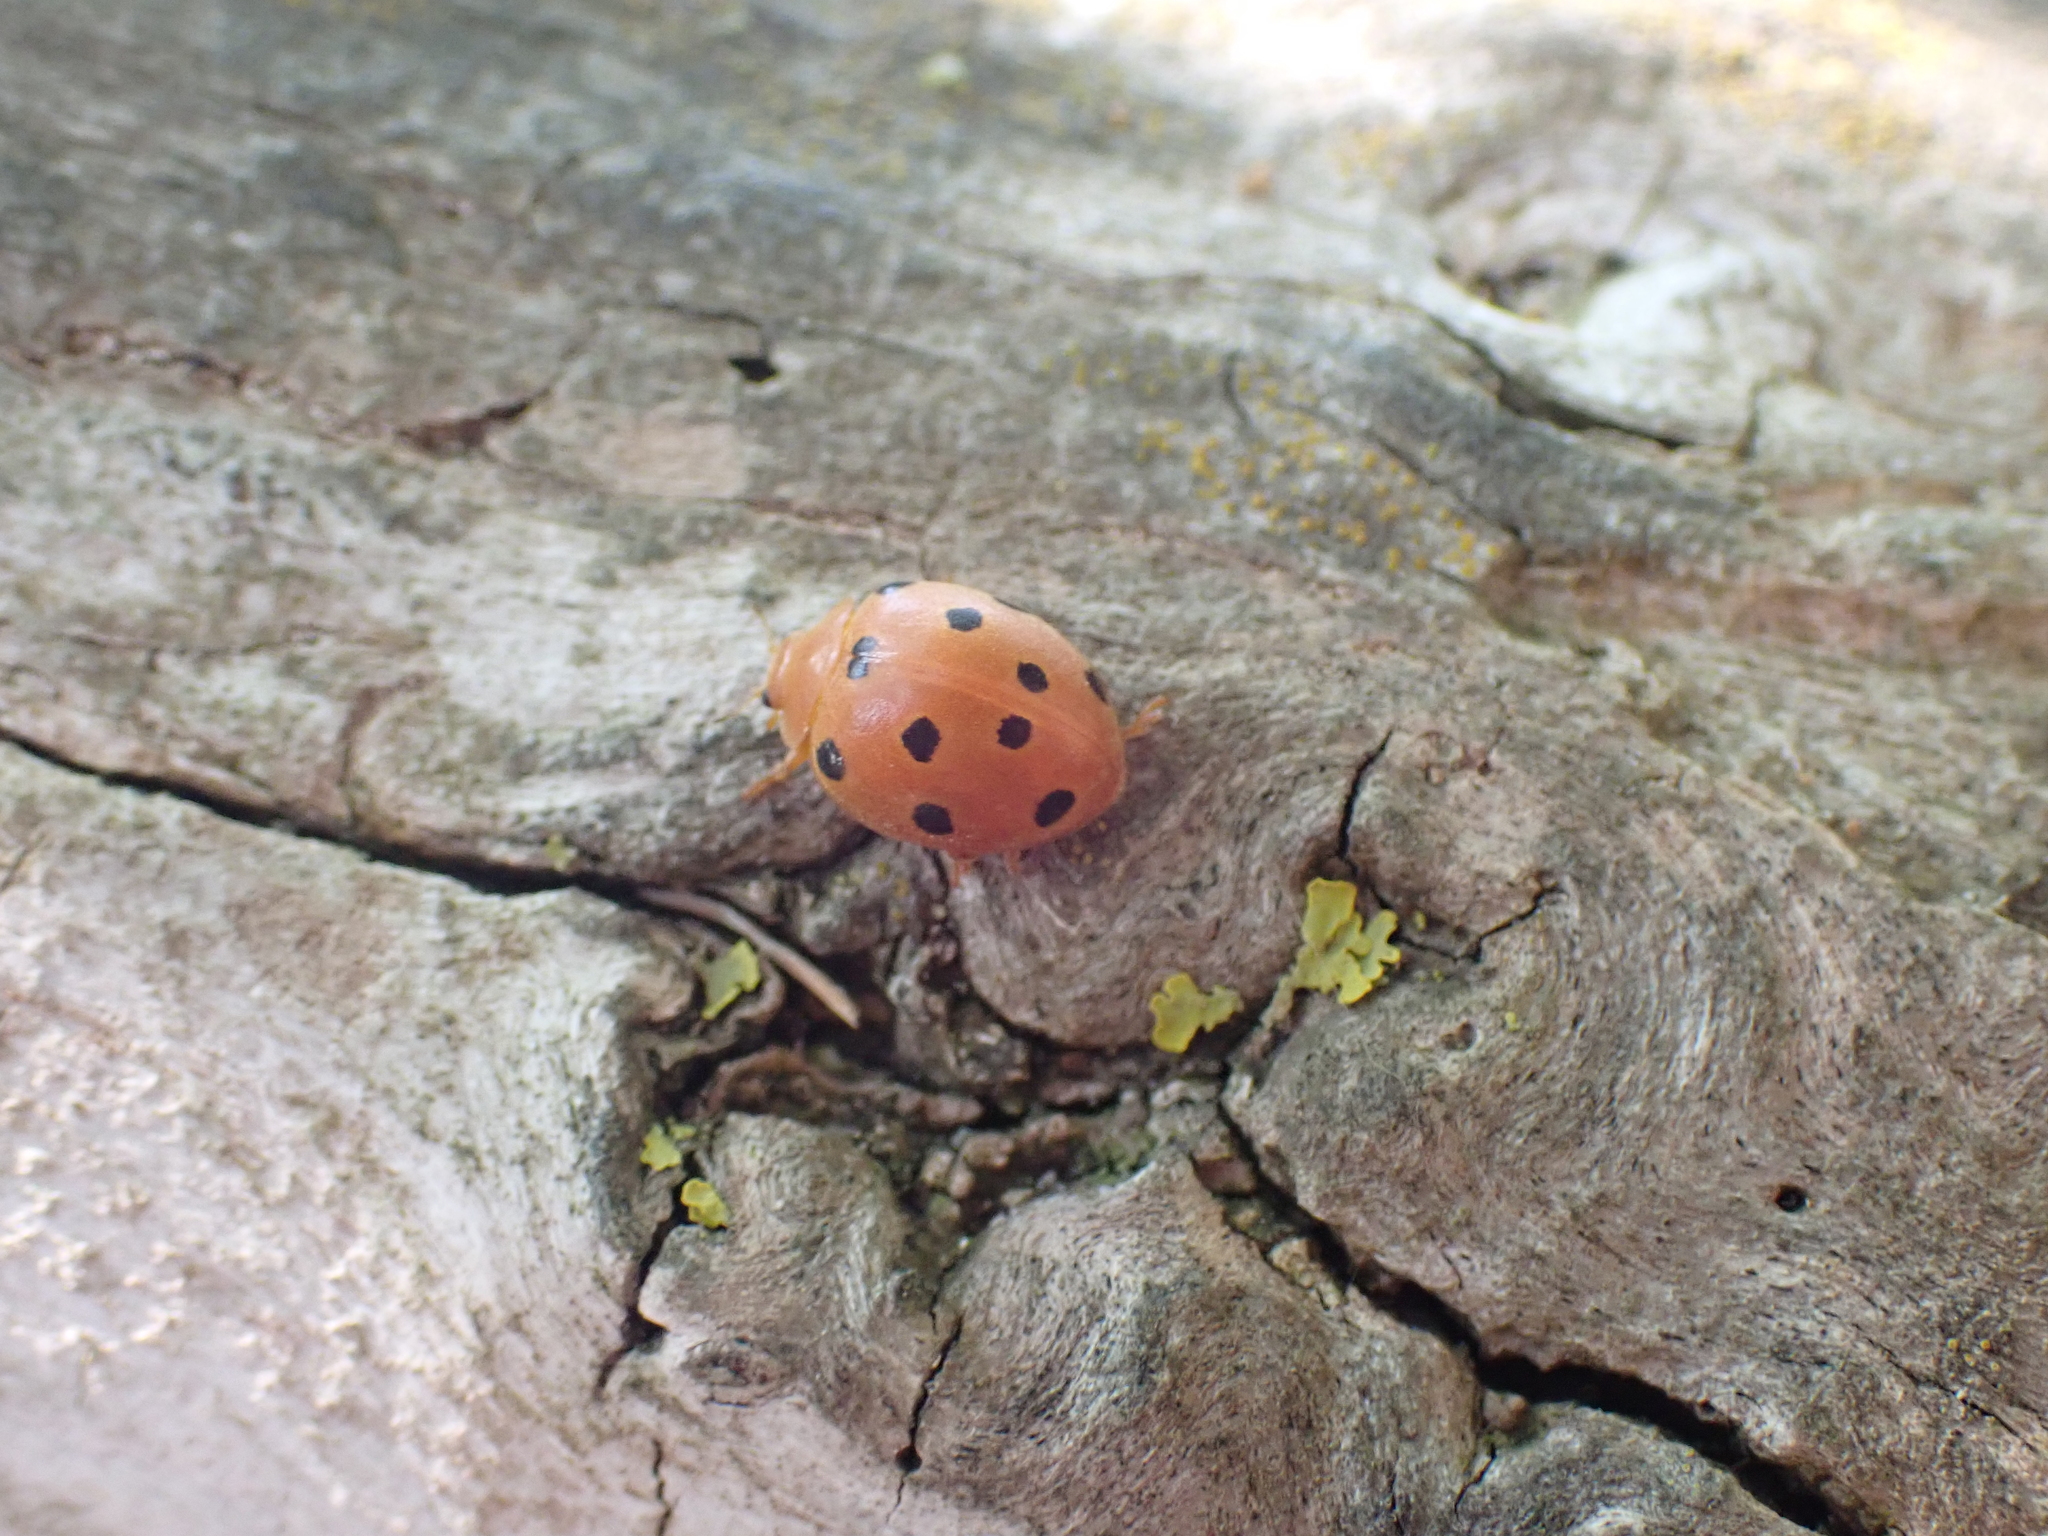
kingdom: Animalia
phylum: Arthropoda
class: Insecta
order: Coleoptera
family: Coccinellidae
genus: Henosepilachna
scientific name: Henosepilachna argus
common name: Bryony ladybird
